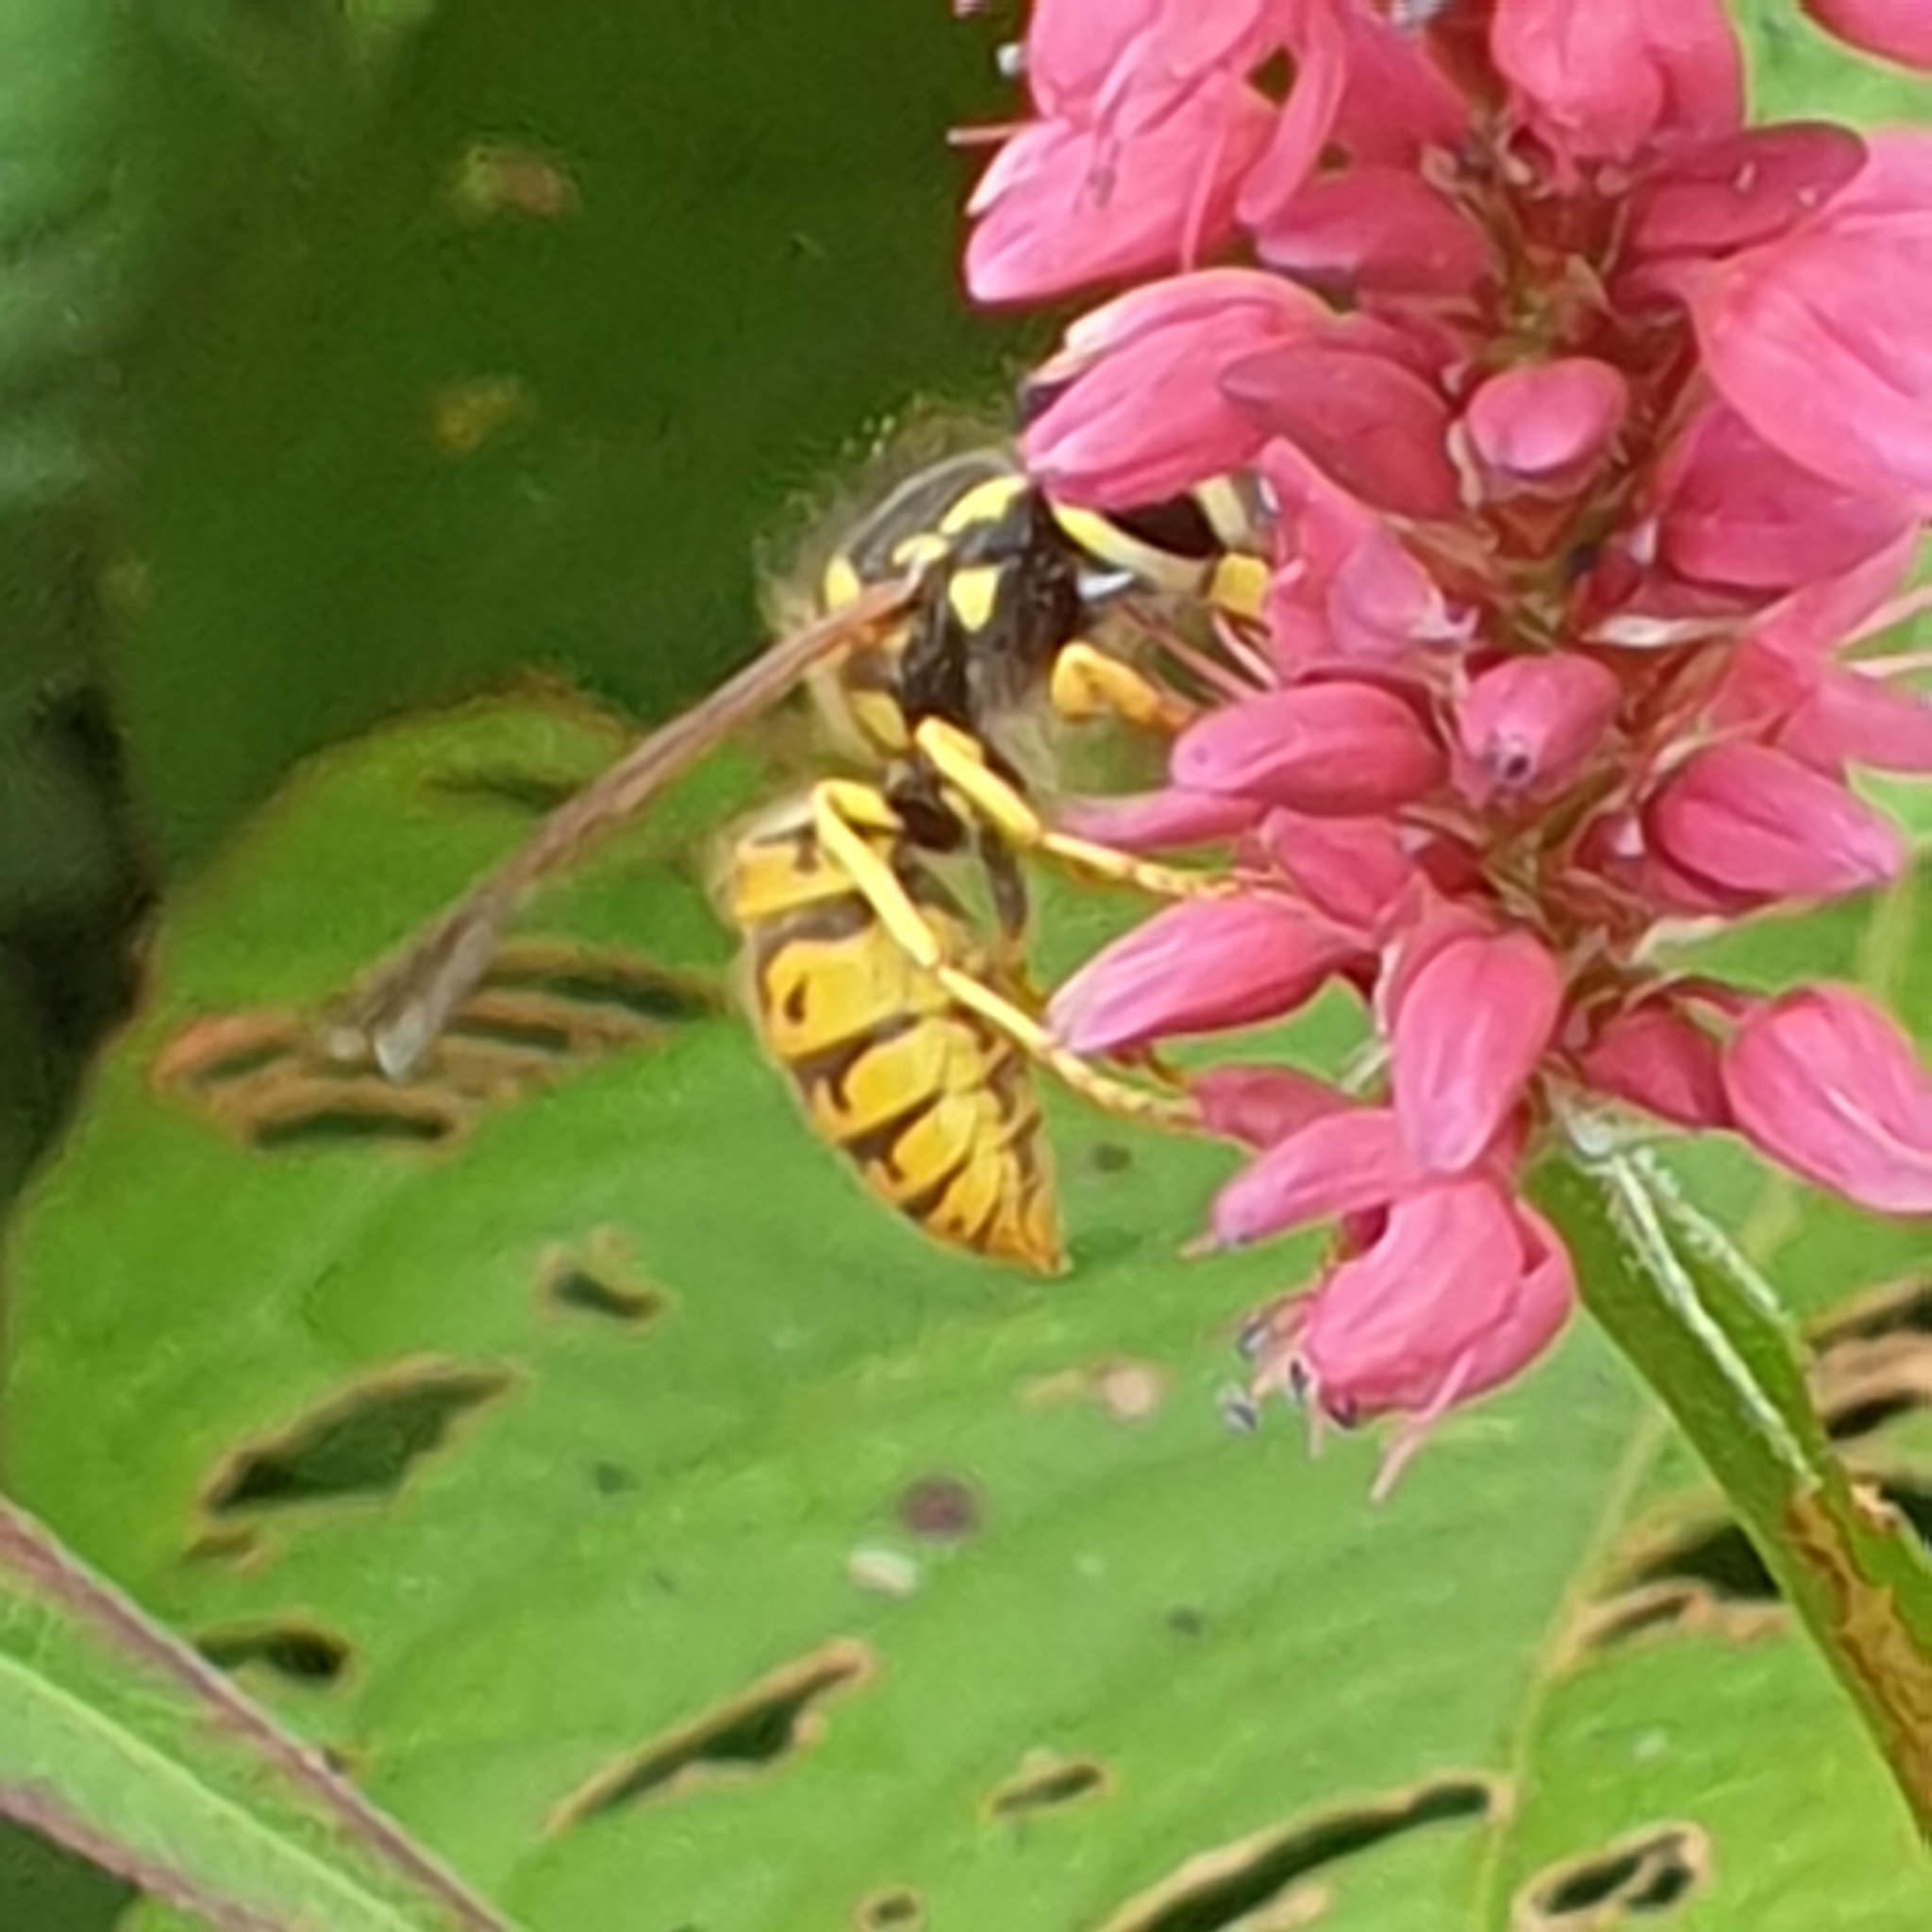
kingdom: Animalia
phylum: Arthropoda
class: Insecta
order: Hymenoptera
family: Vespidae
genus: Vespula
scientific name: Vespula vulgaris
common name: Common wasp
